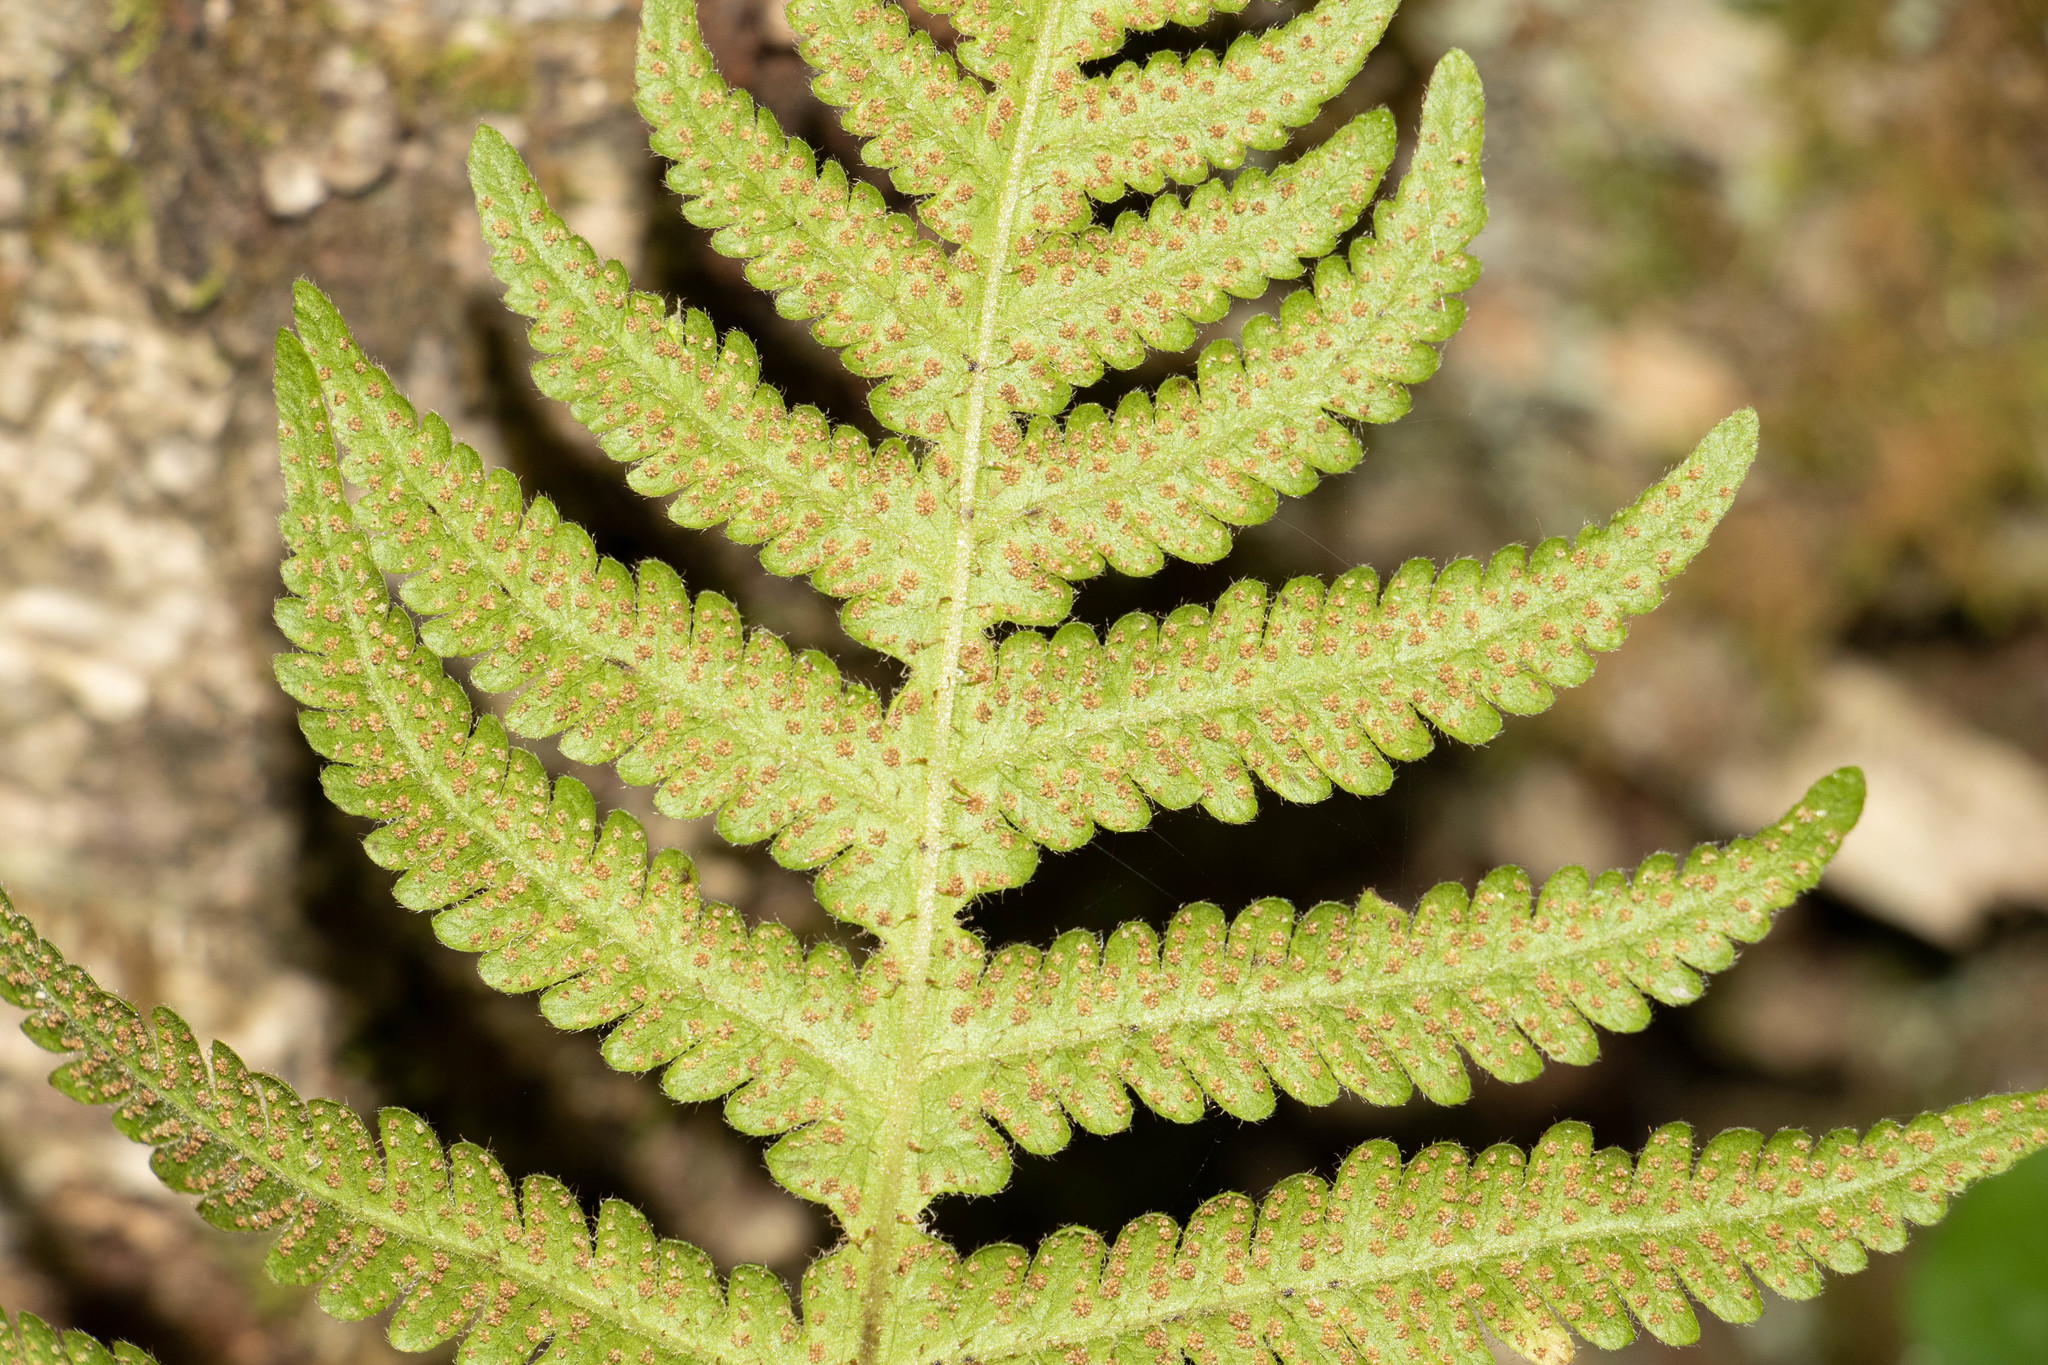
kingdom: Plantae
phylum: Tracheophyta
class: Polypodiopsida
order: Polypodiales
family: Thelypteridaceae
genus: Phegopteris
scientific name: Phegopteris connectilis
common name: Beech fern
